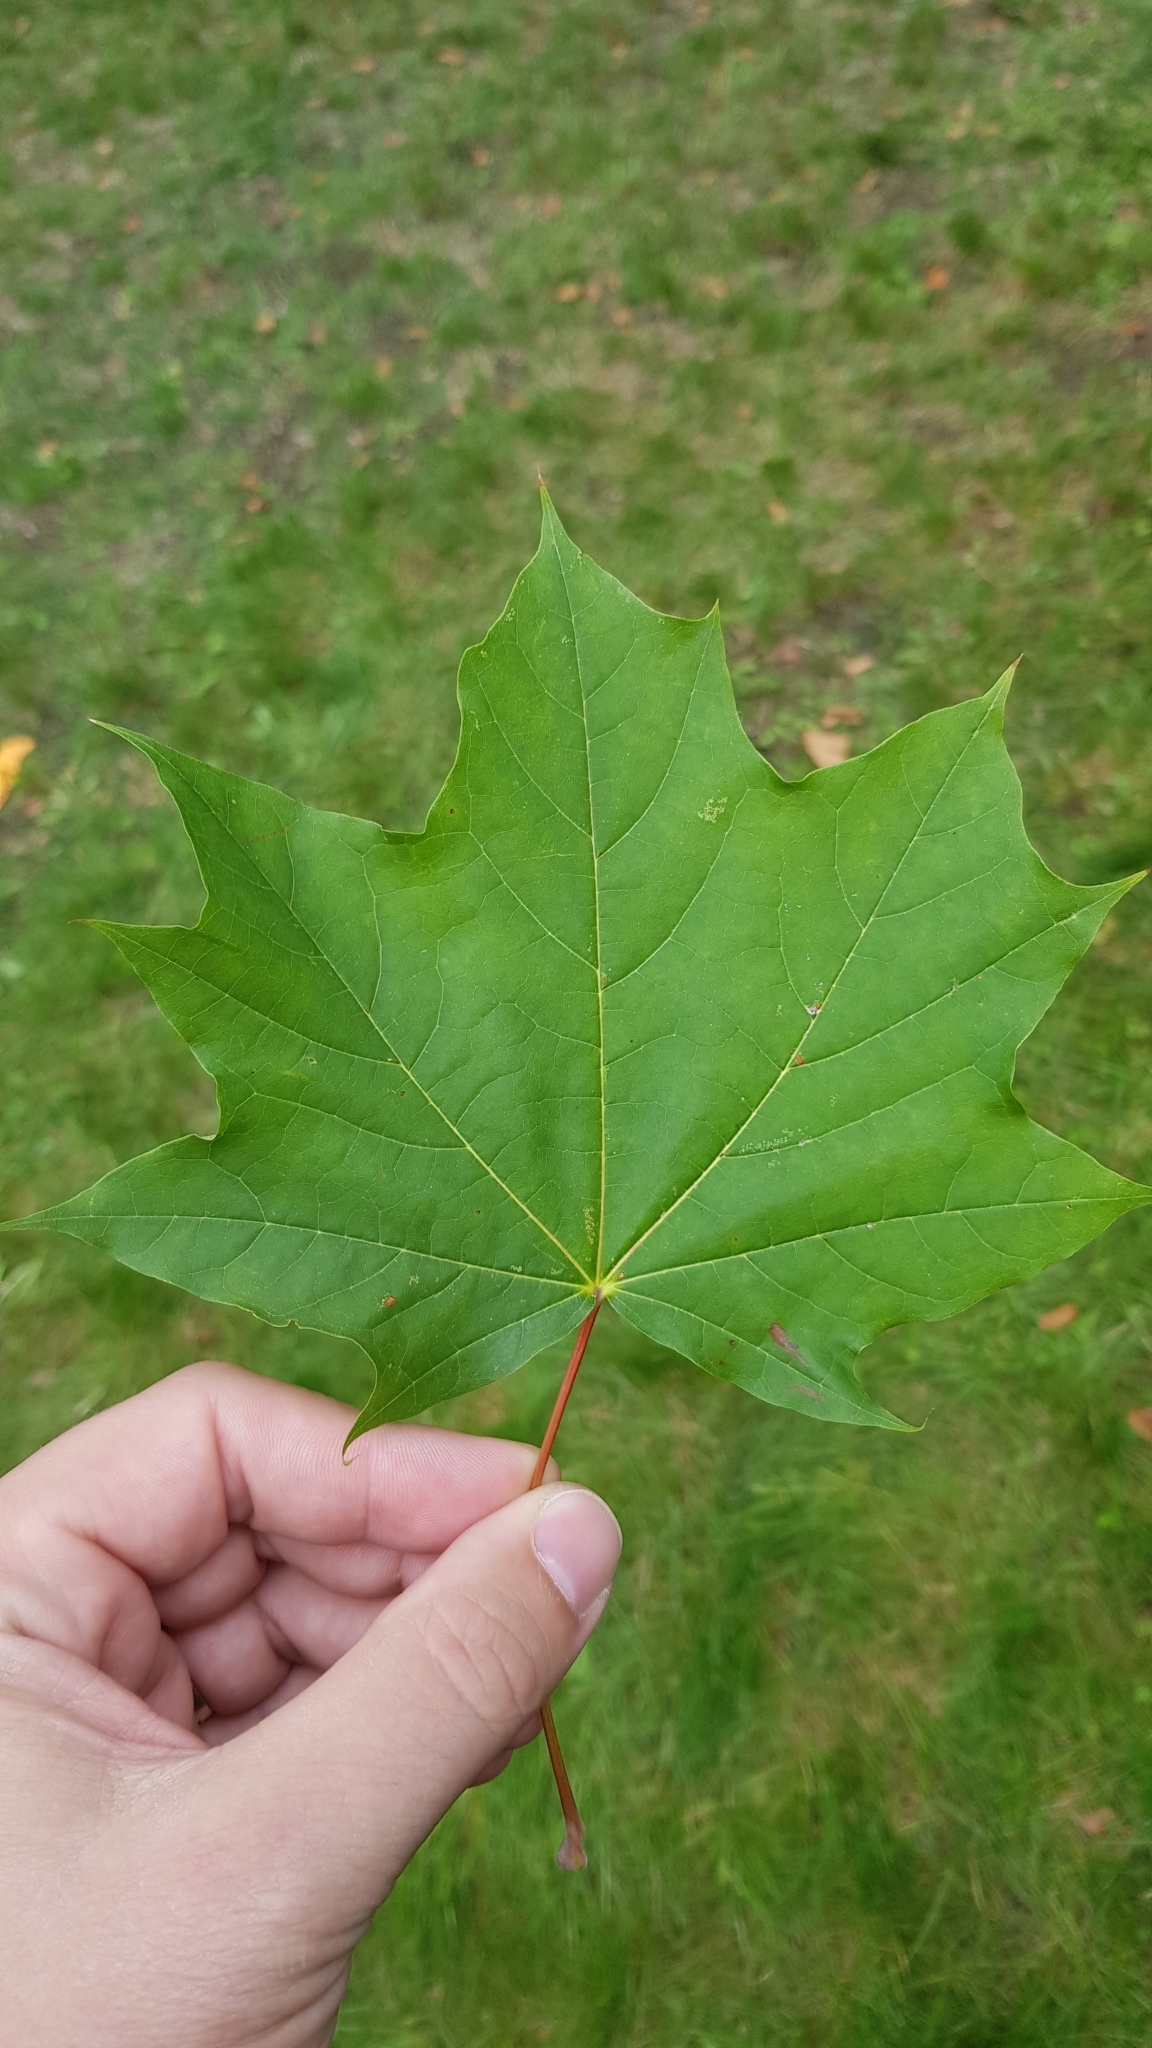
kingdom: Plantae
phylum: Tracheophyta
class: Magnoliopsida
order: Sapindales
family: Sapindaceae
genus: Acer
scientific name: Acer platanoides
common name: Norway maple
